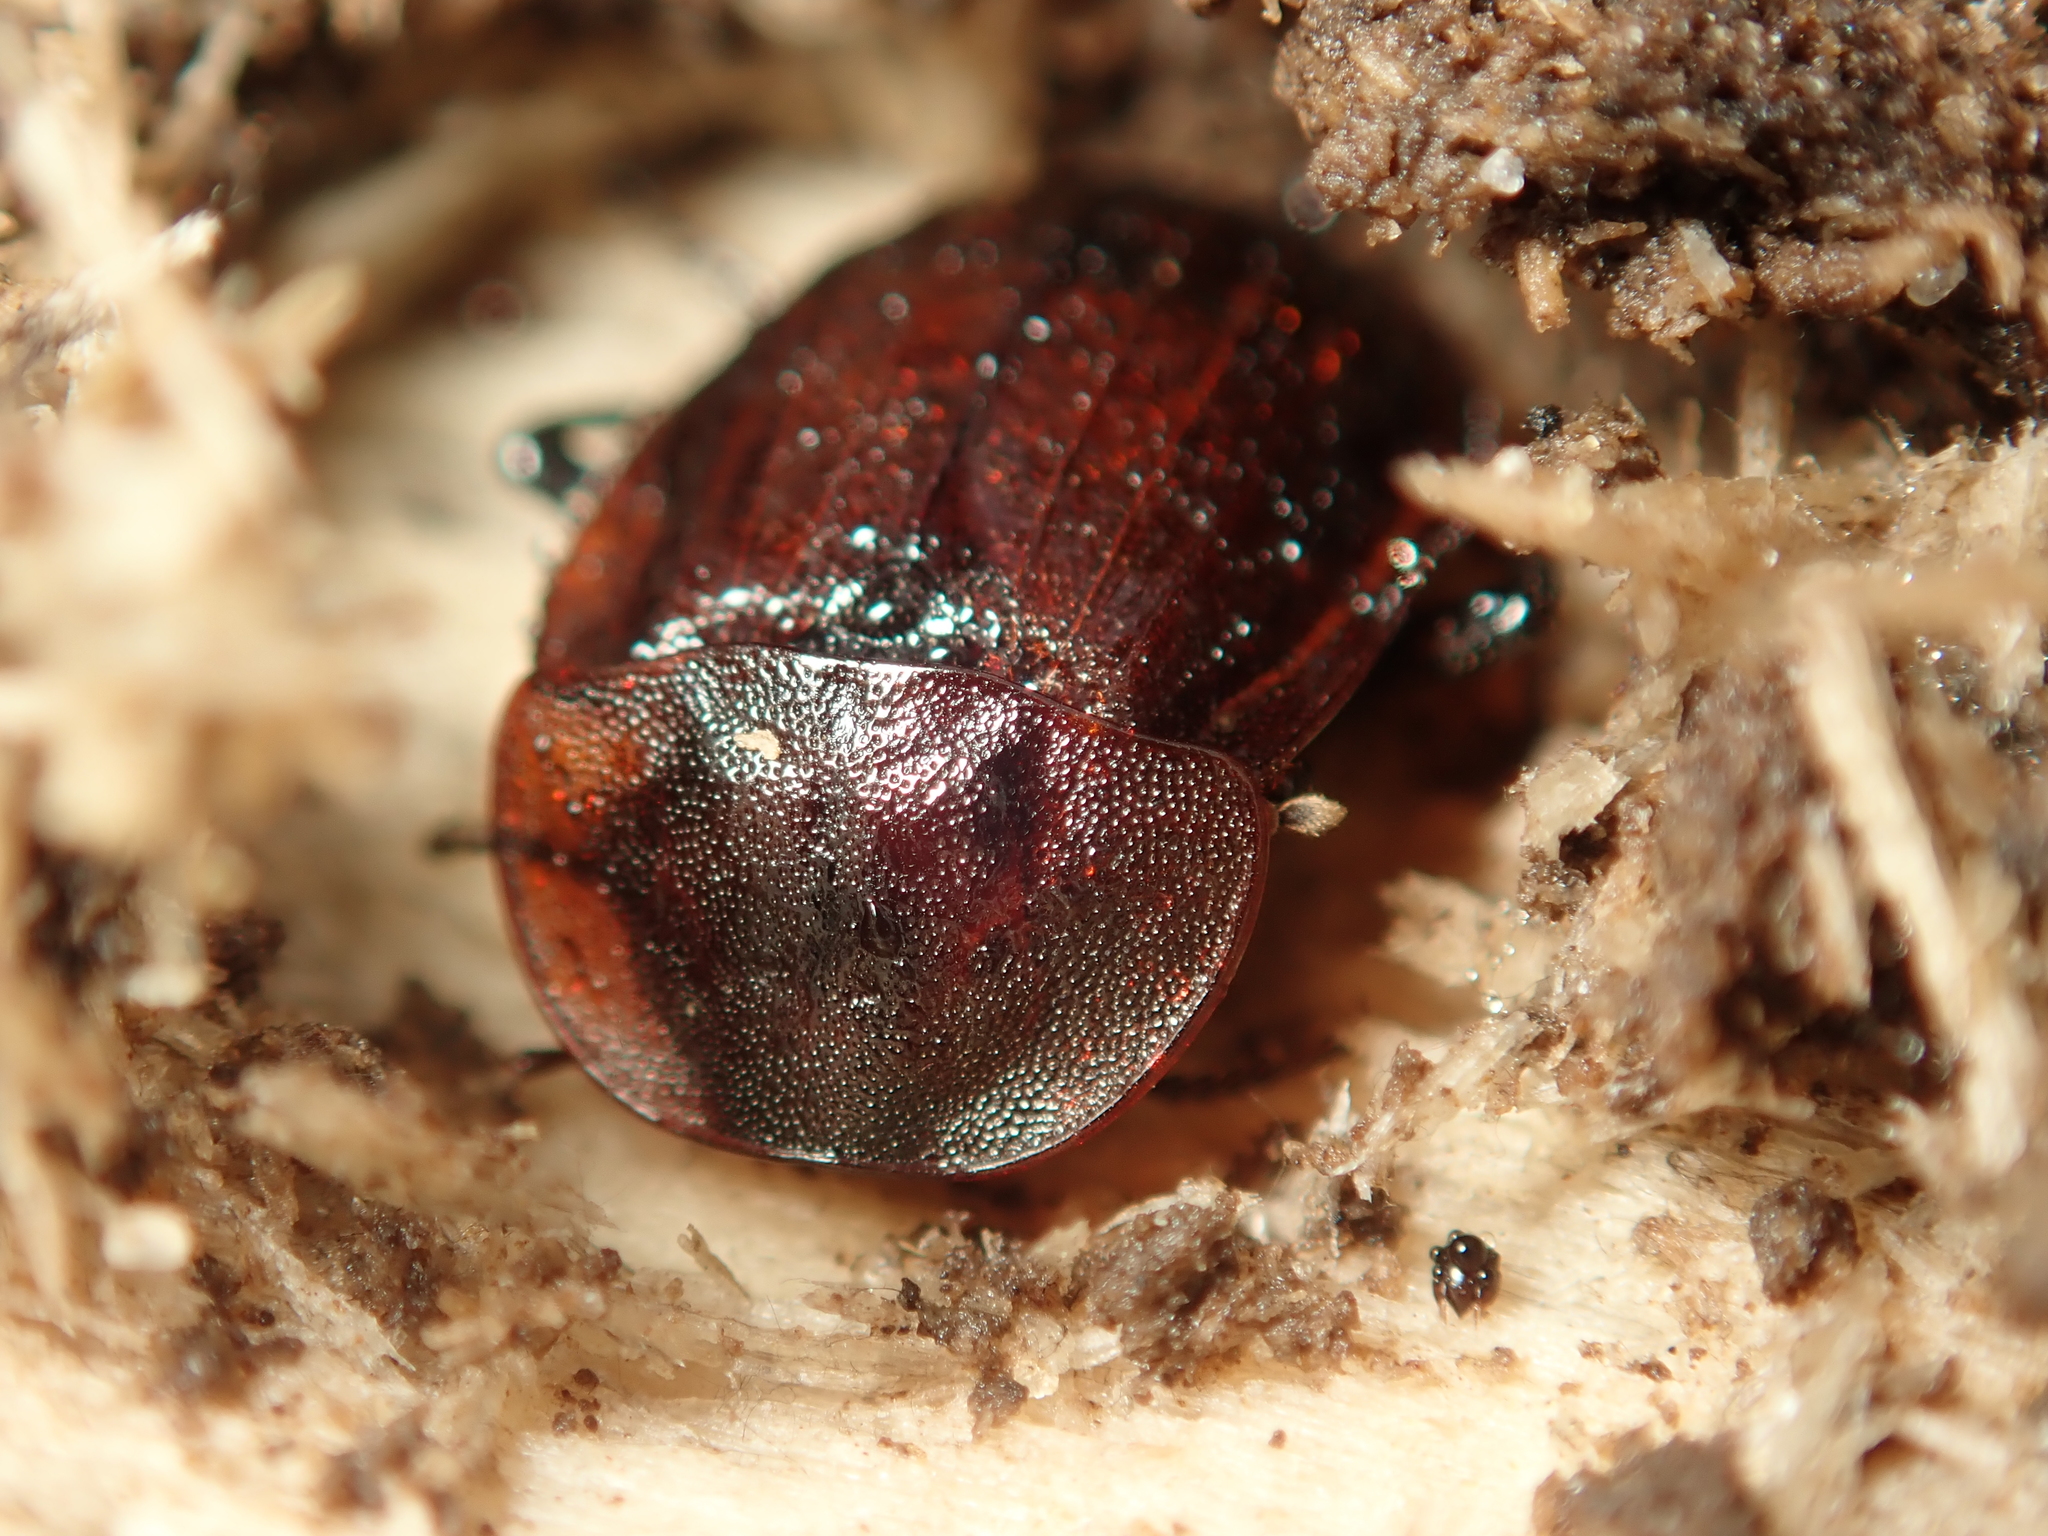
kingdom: Animalia
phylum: Arthropoda
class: Insecta
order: Coleoptera
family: Staphylinidae
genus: Silpha
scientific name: Silpha atrata
